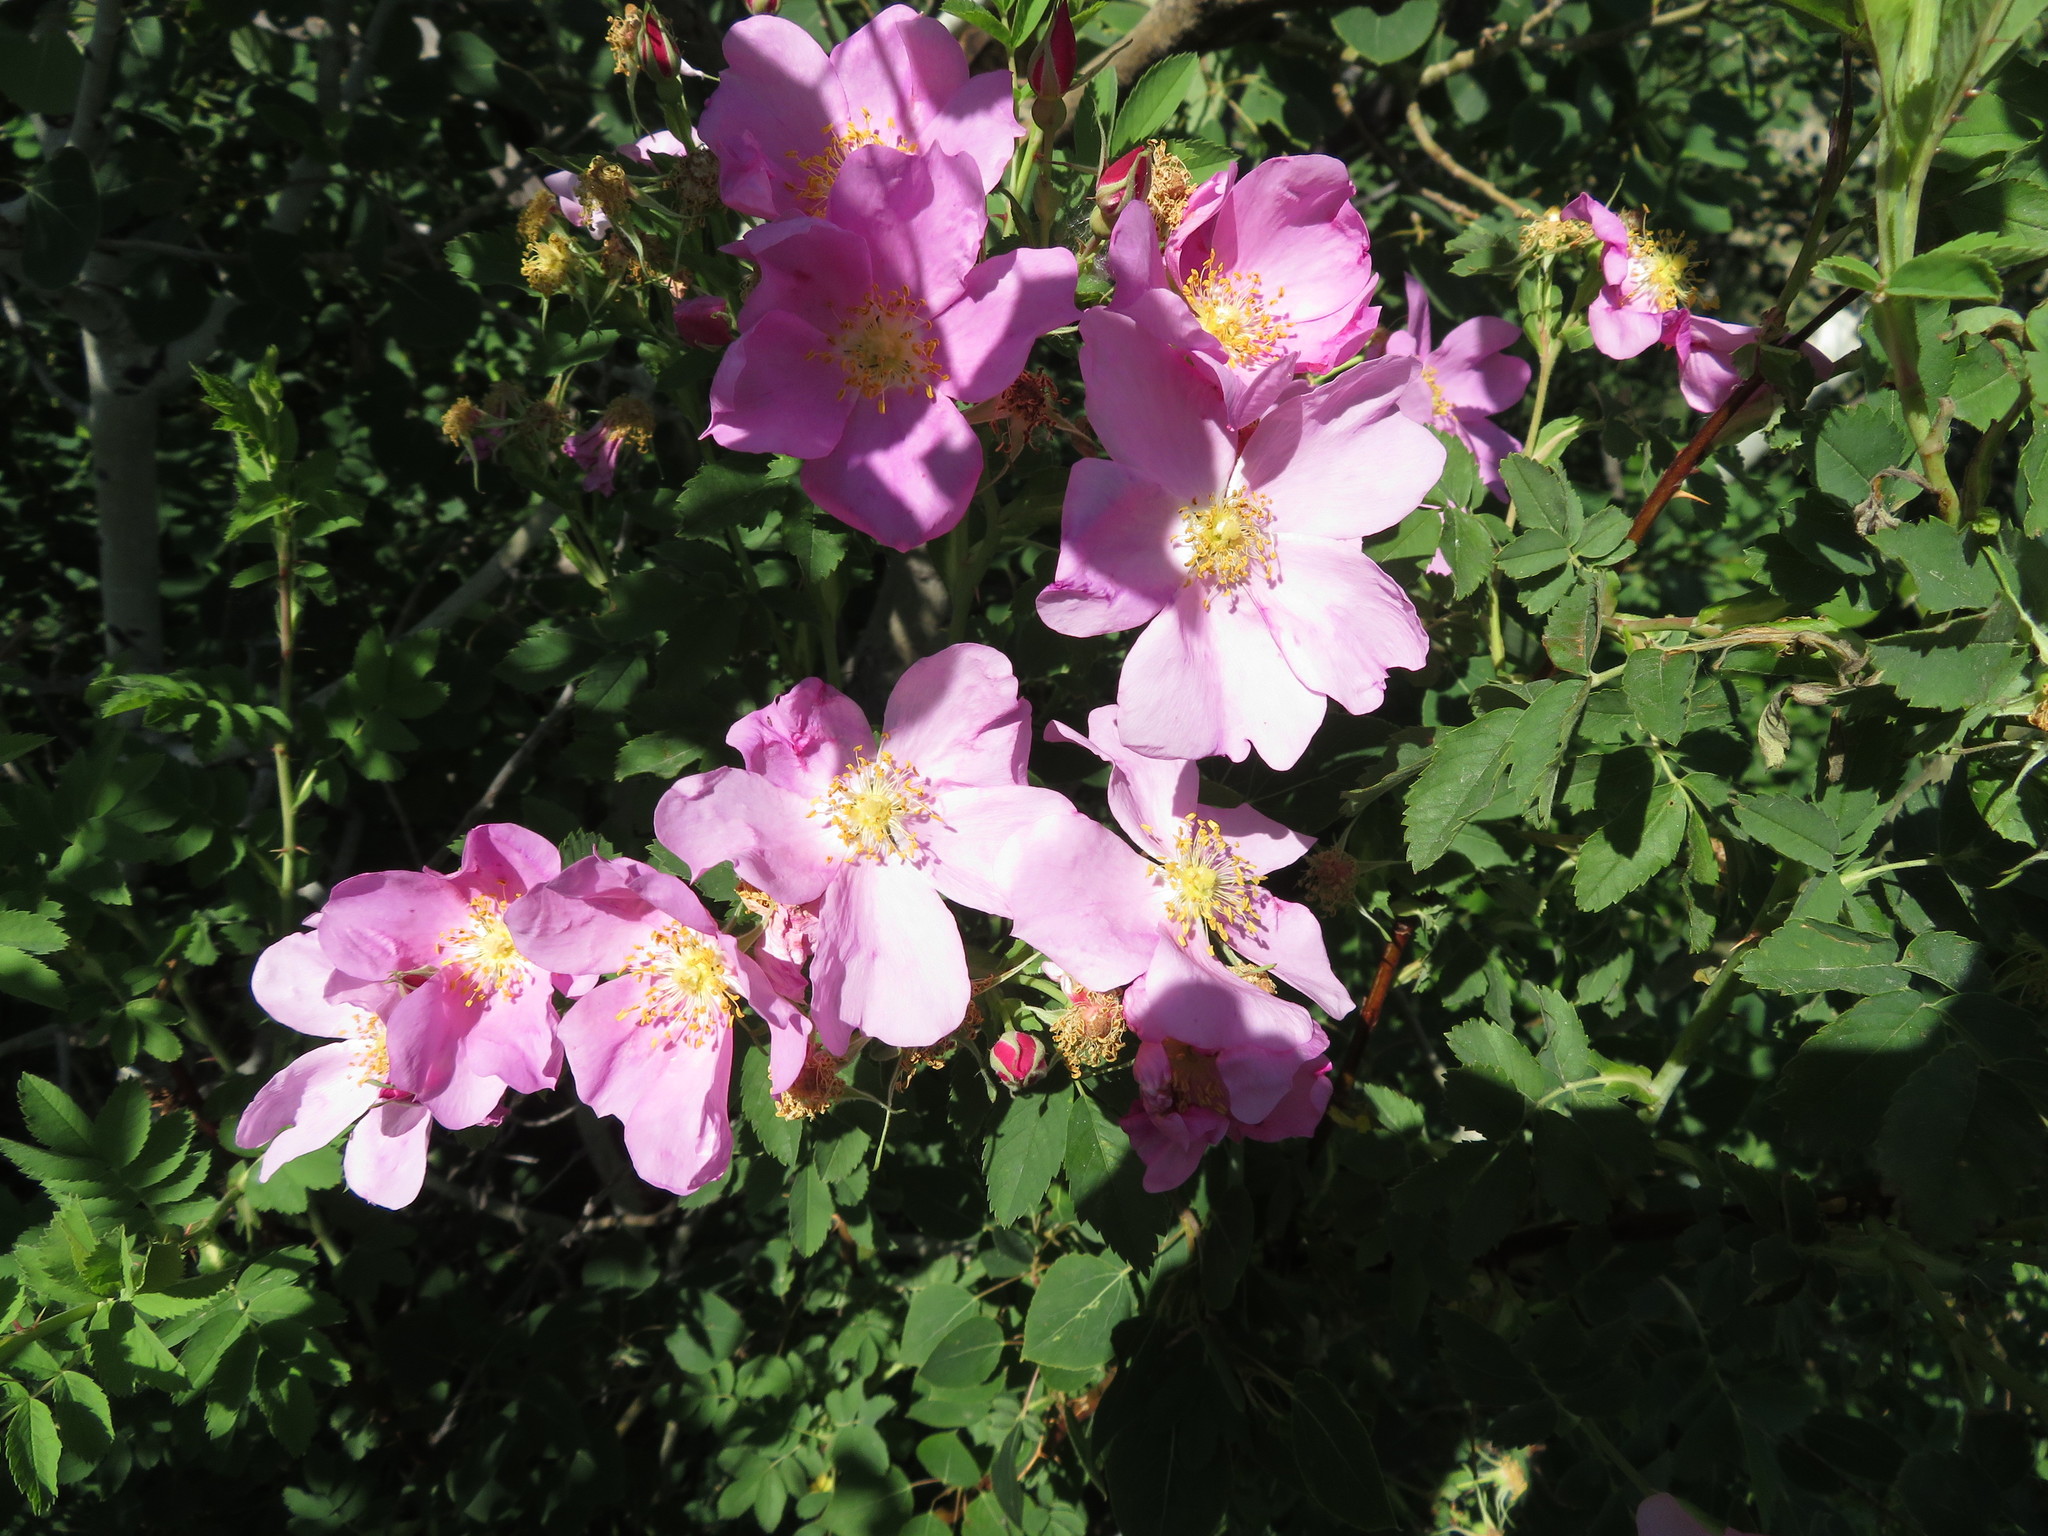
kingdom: Plantae
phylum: Tracheophyta
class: Magnoliopsida
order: Rosales
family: Rosaceae
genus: Rosa
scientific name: Rosa woodsii
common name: Woods's rose
